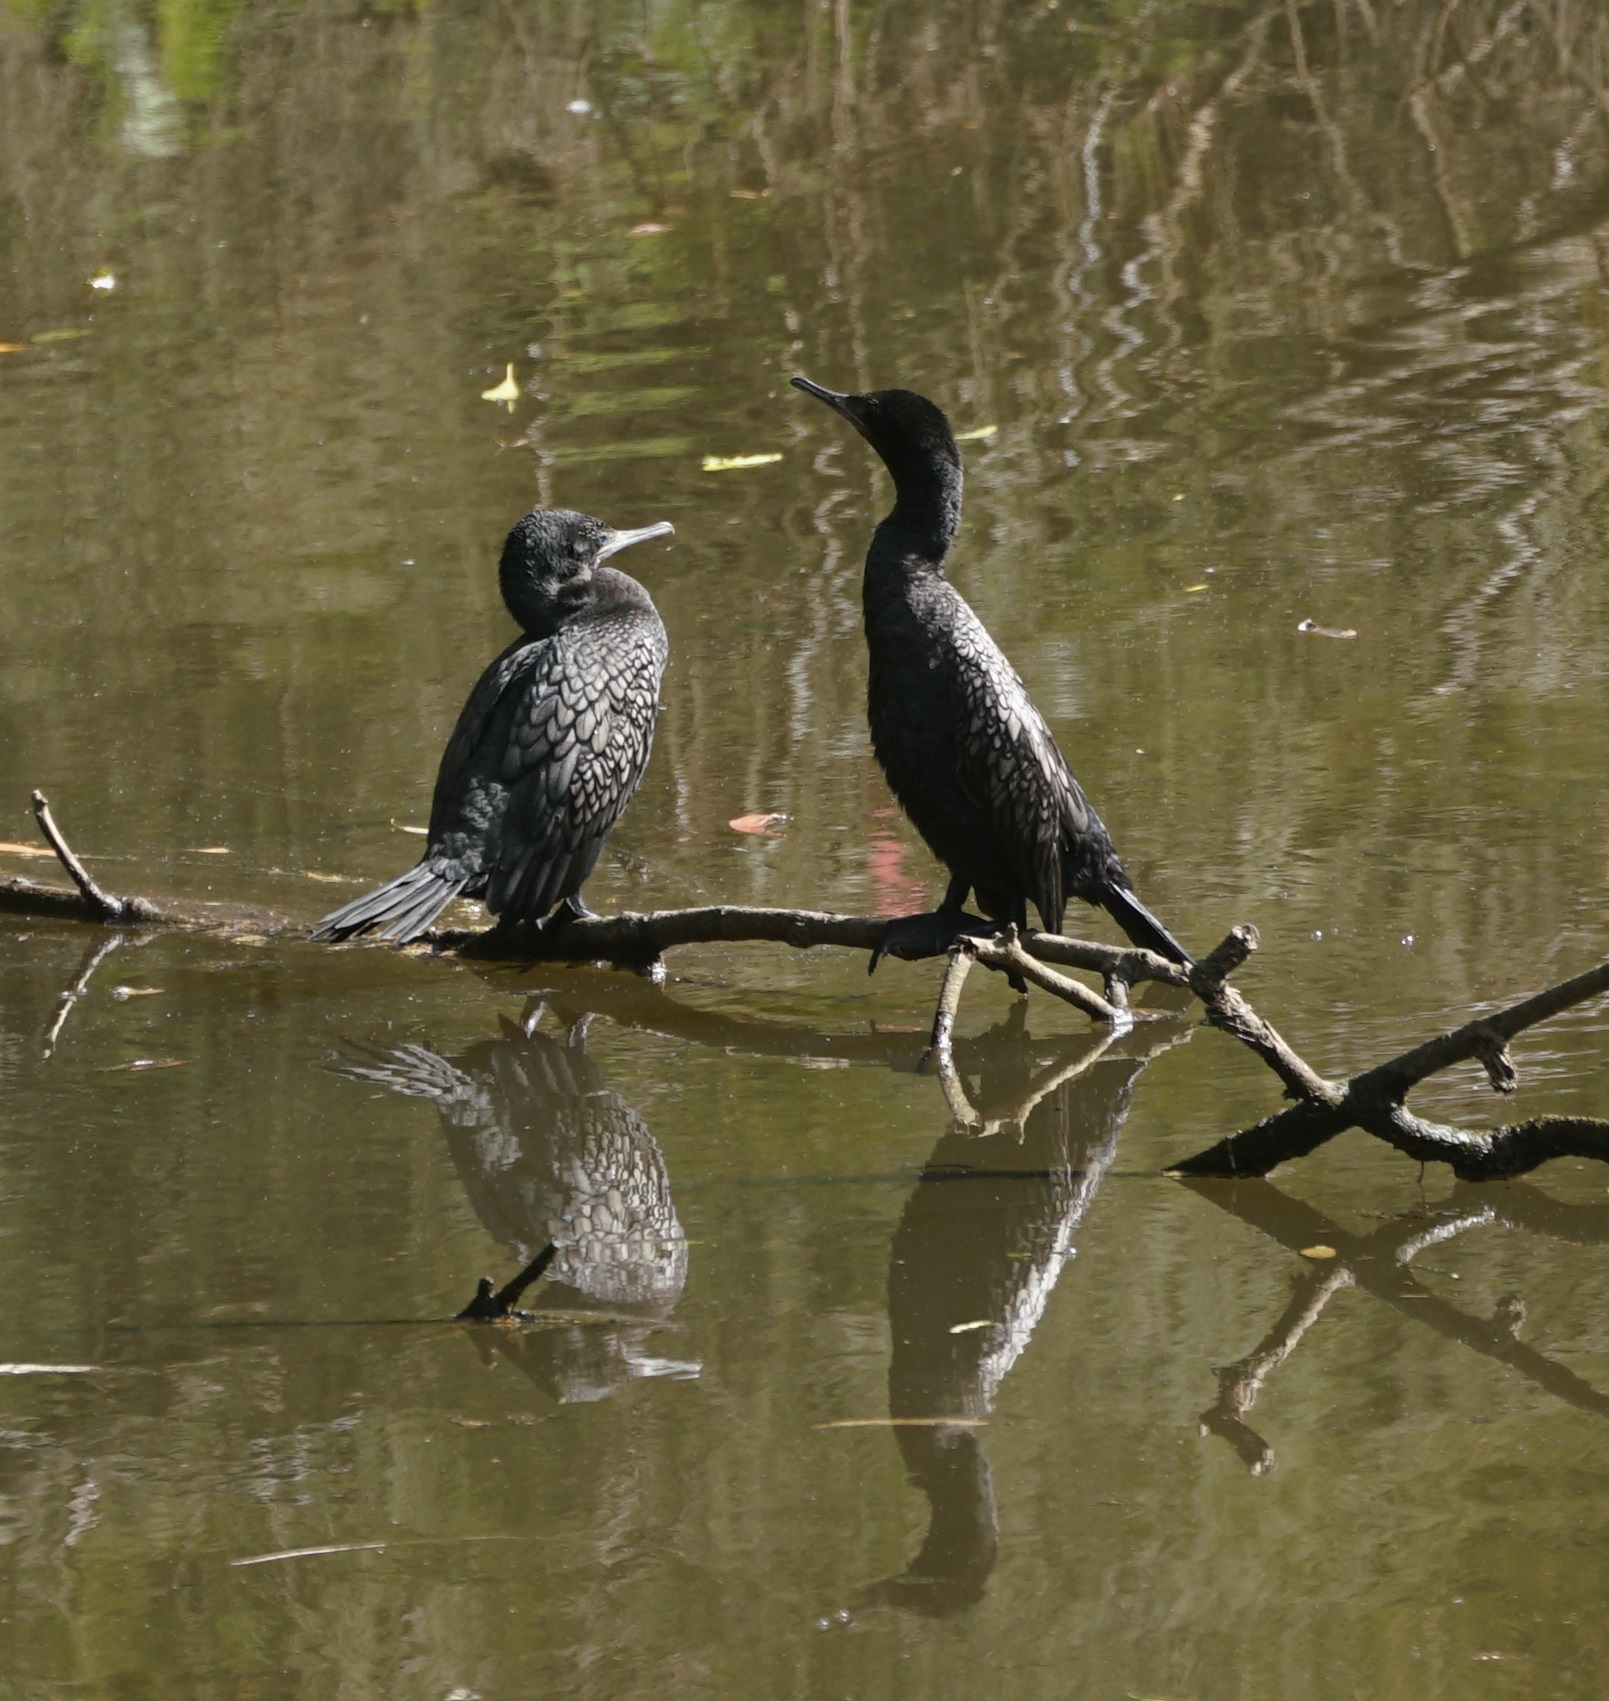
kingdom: Animalia
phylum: Chordata
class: Aves
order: Suliformes
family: Phalacrocoracidae
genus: Phalacrocorax
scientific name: Phalacrocorax sulcirostris
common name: Little black cormorant
